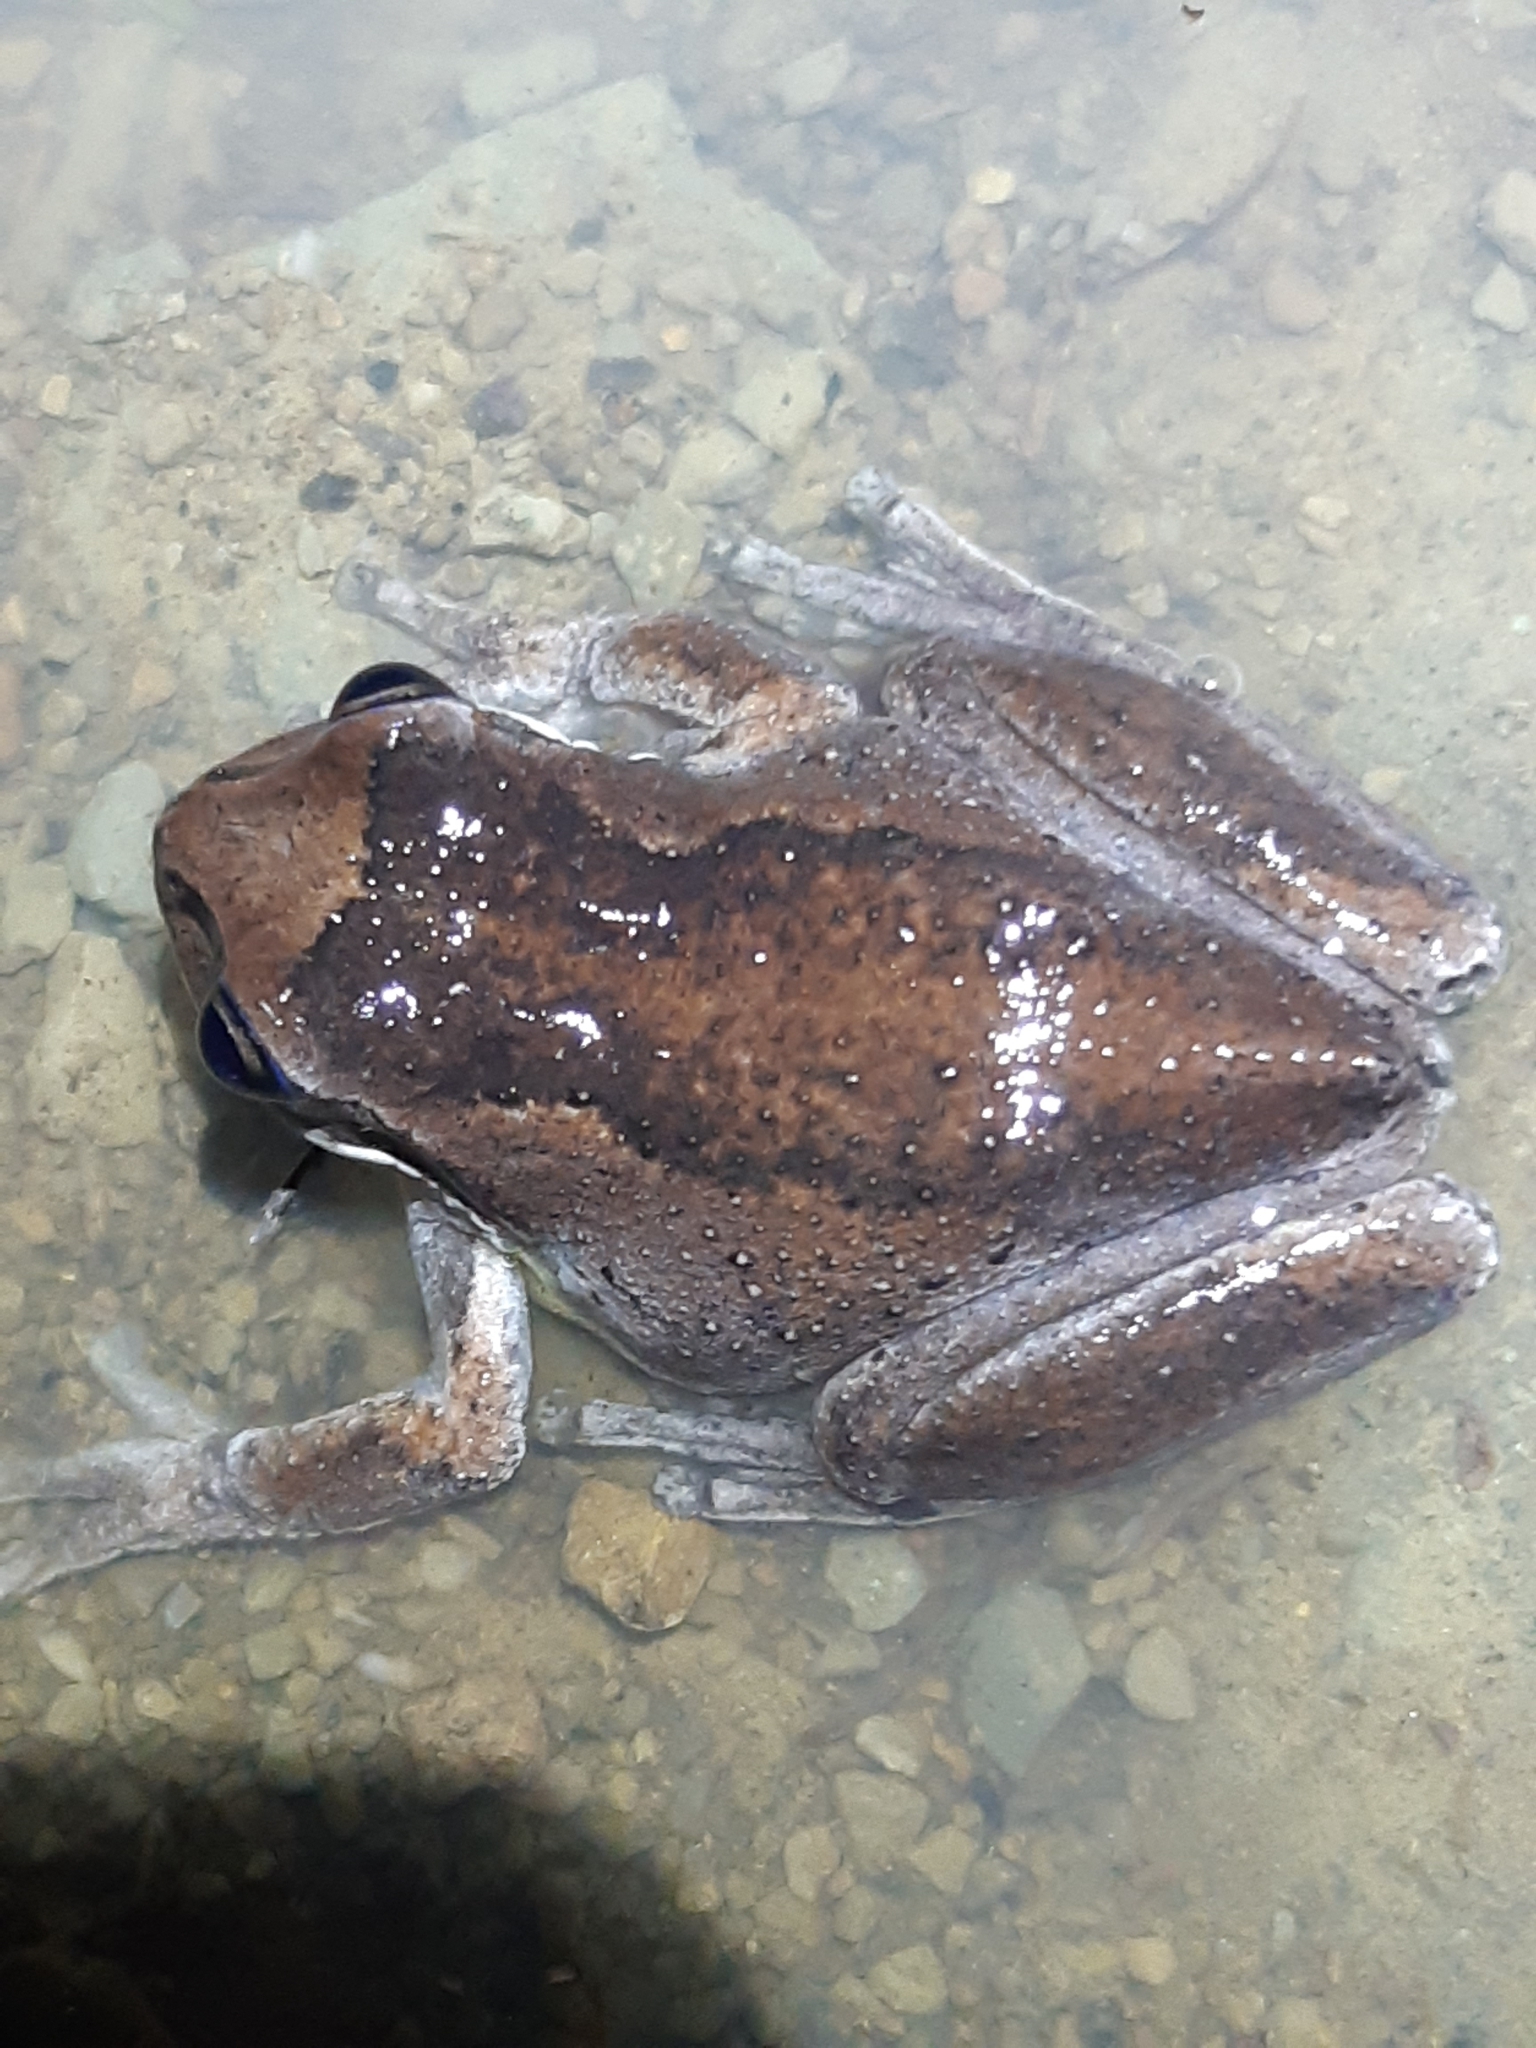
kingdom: Animalia
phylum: Chordata
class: Amphibia
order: Anura
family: Pelodryadidae
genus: Litoria
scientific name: Litoria ewingii
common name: Southern brown tree frog
